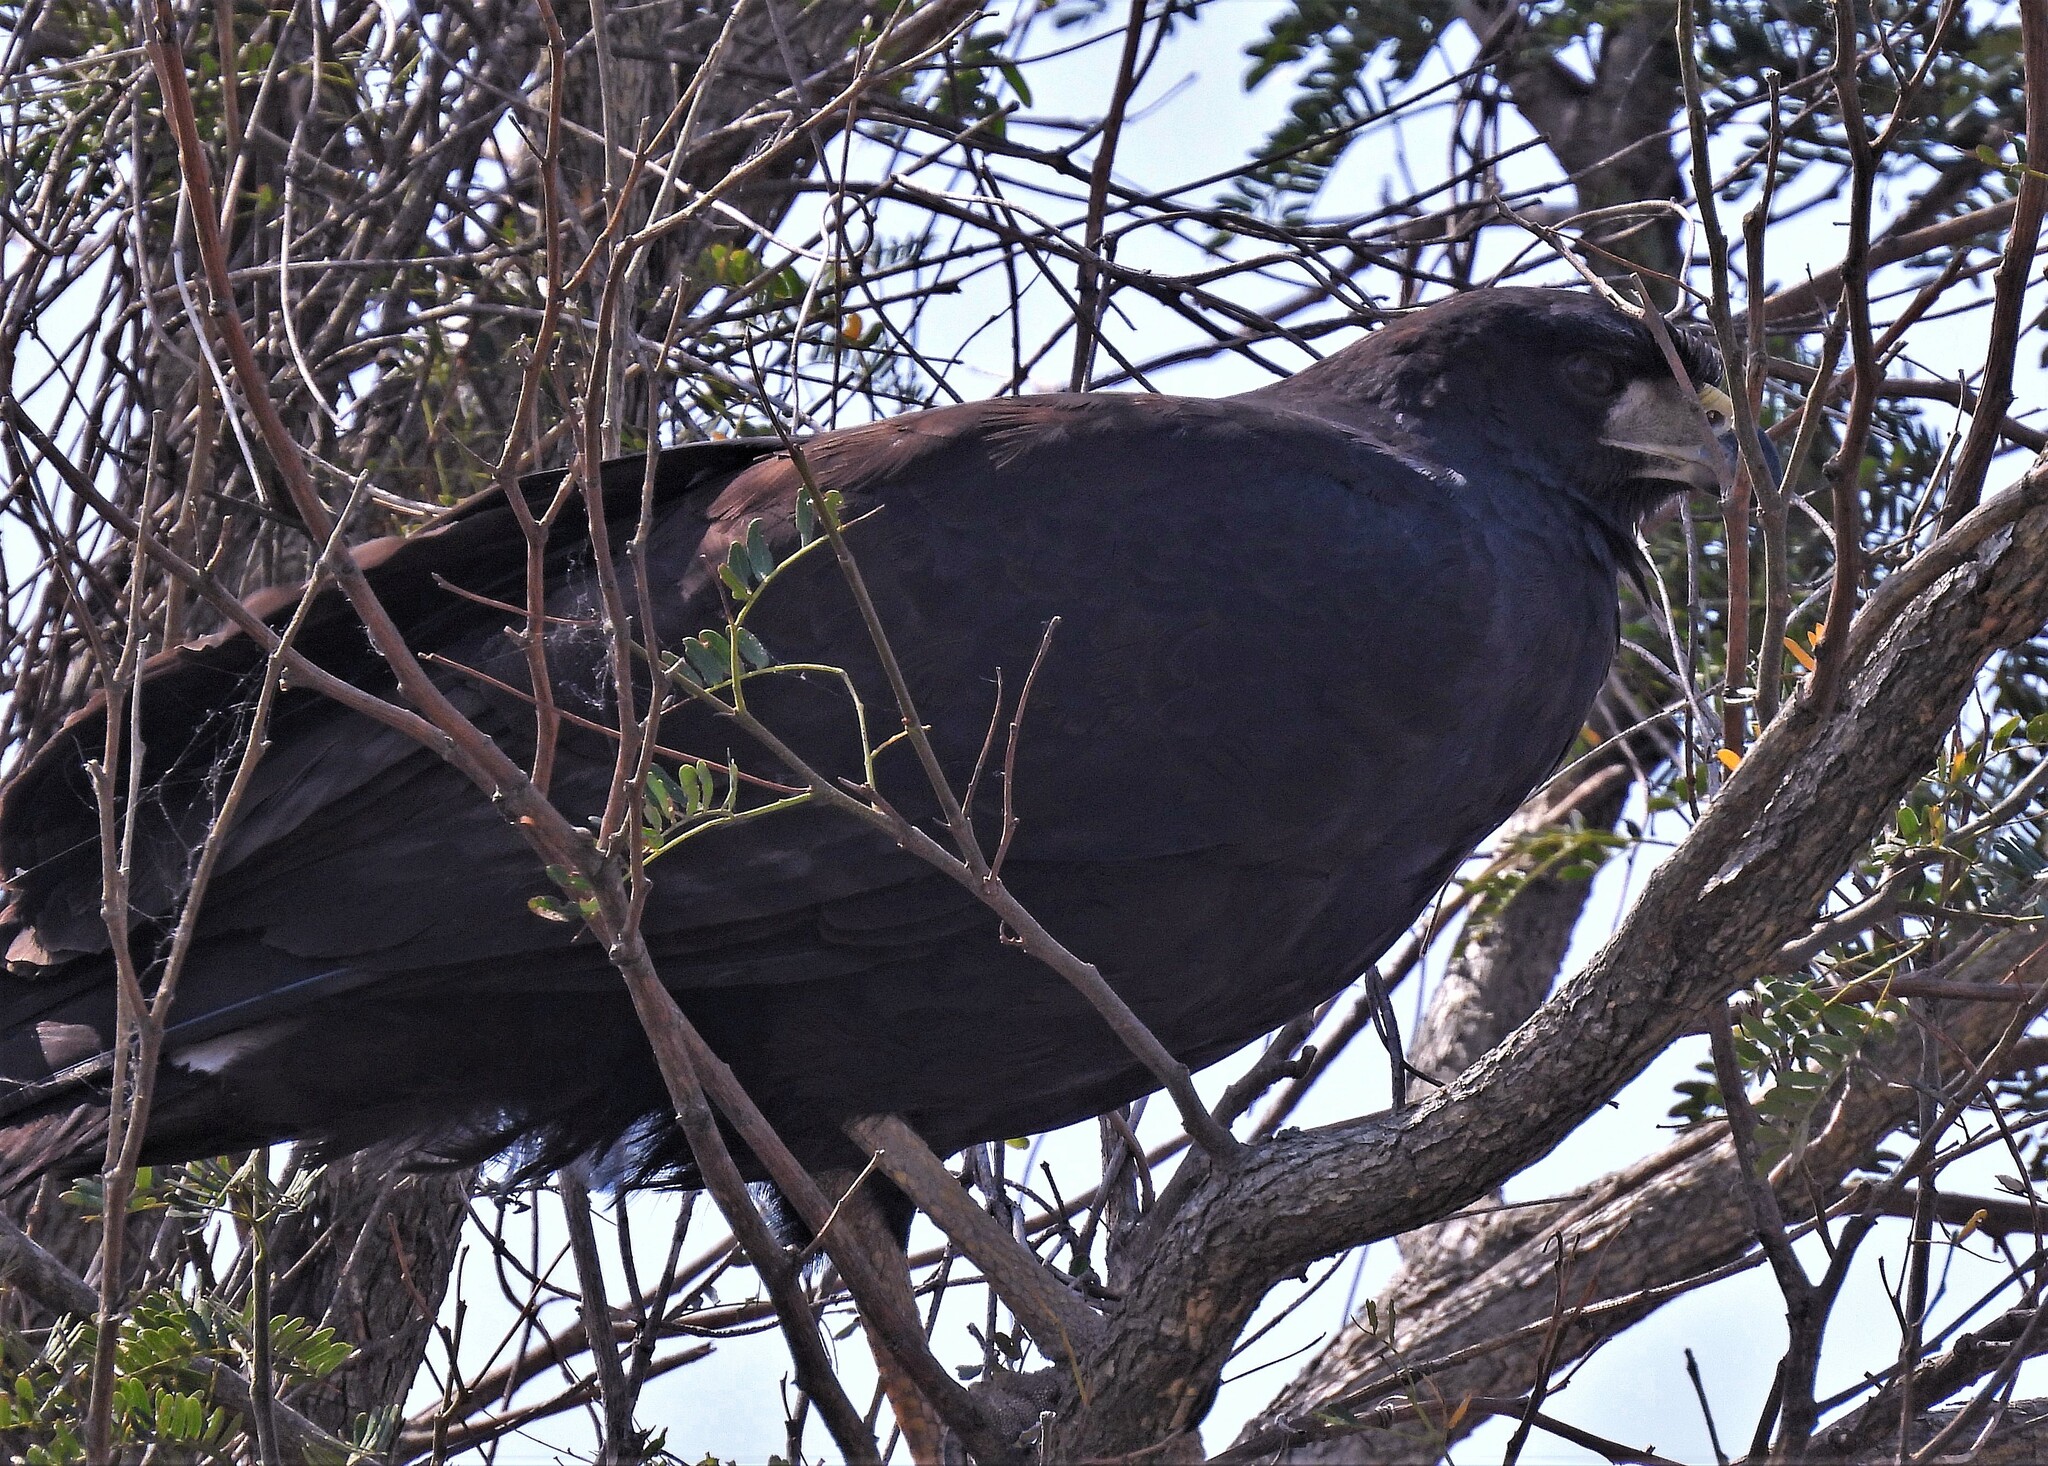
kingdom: Animalia
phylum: Chordata
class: Aves
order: Accipitriformes
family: Accipitridae
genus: Buteogallus
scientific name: Buteogallus urubitinga
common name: Great black hawk
